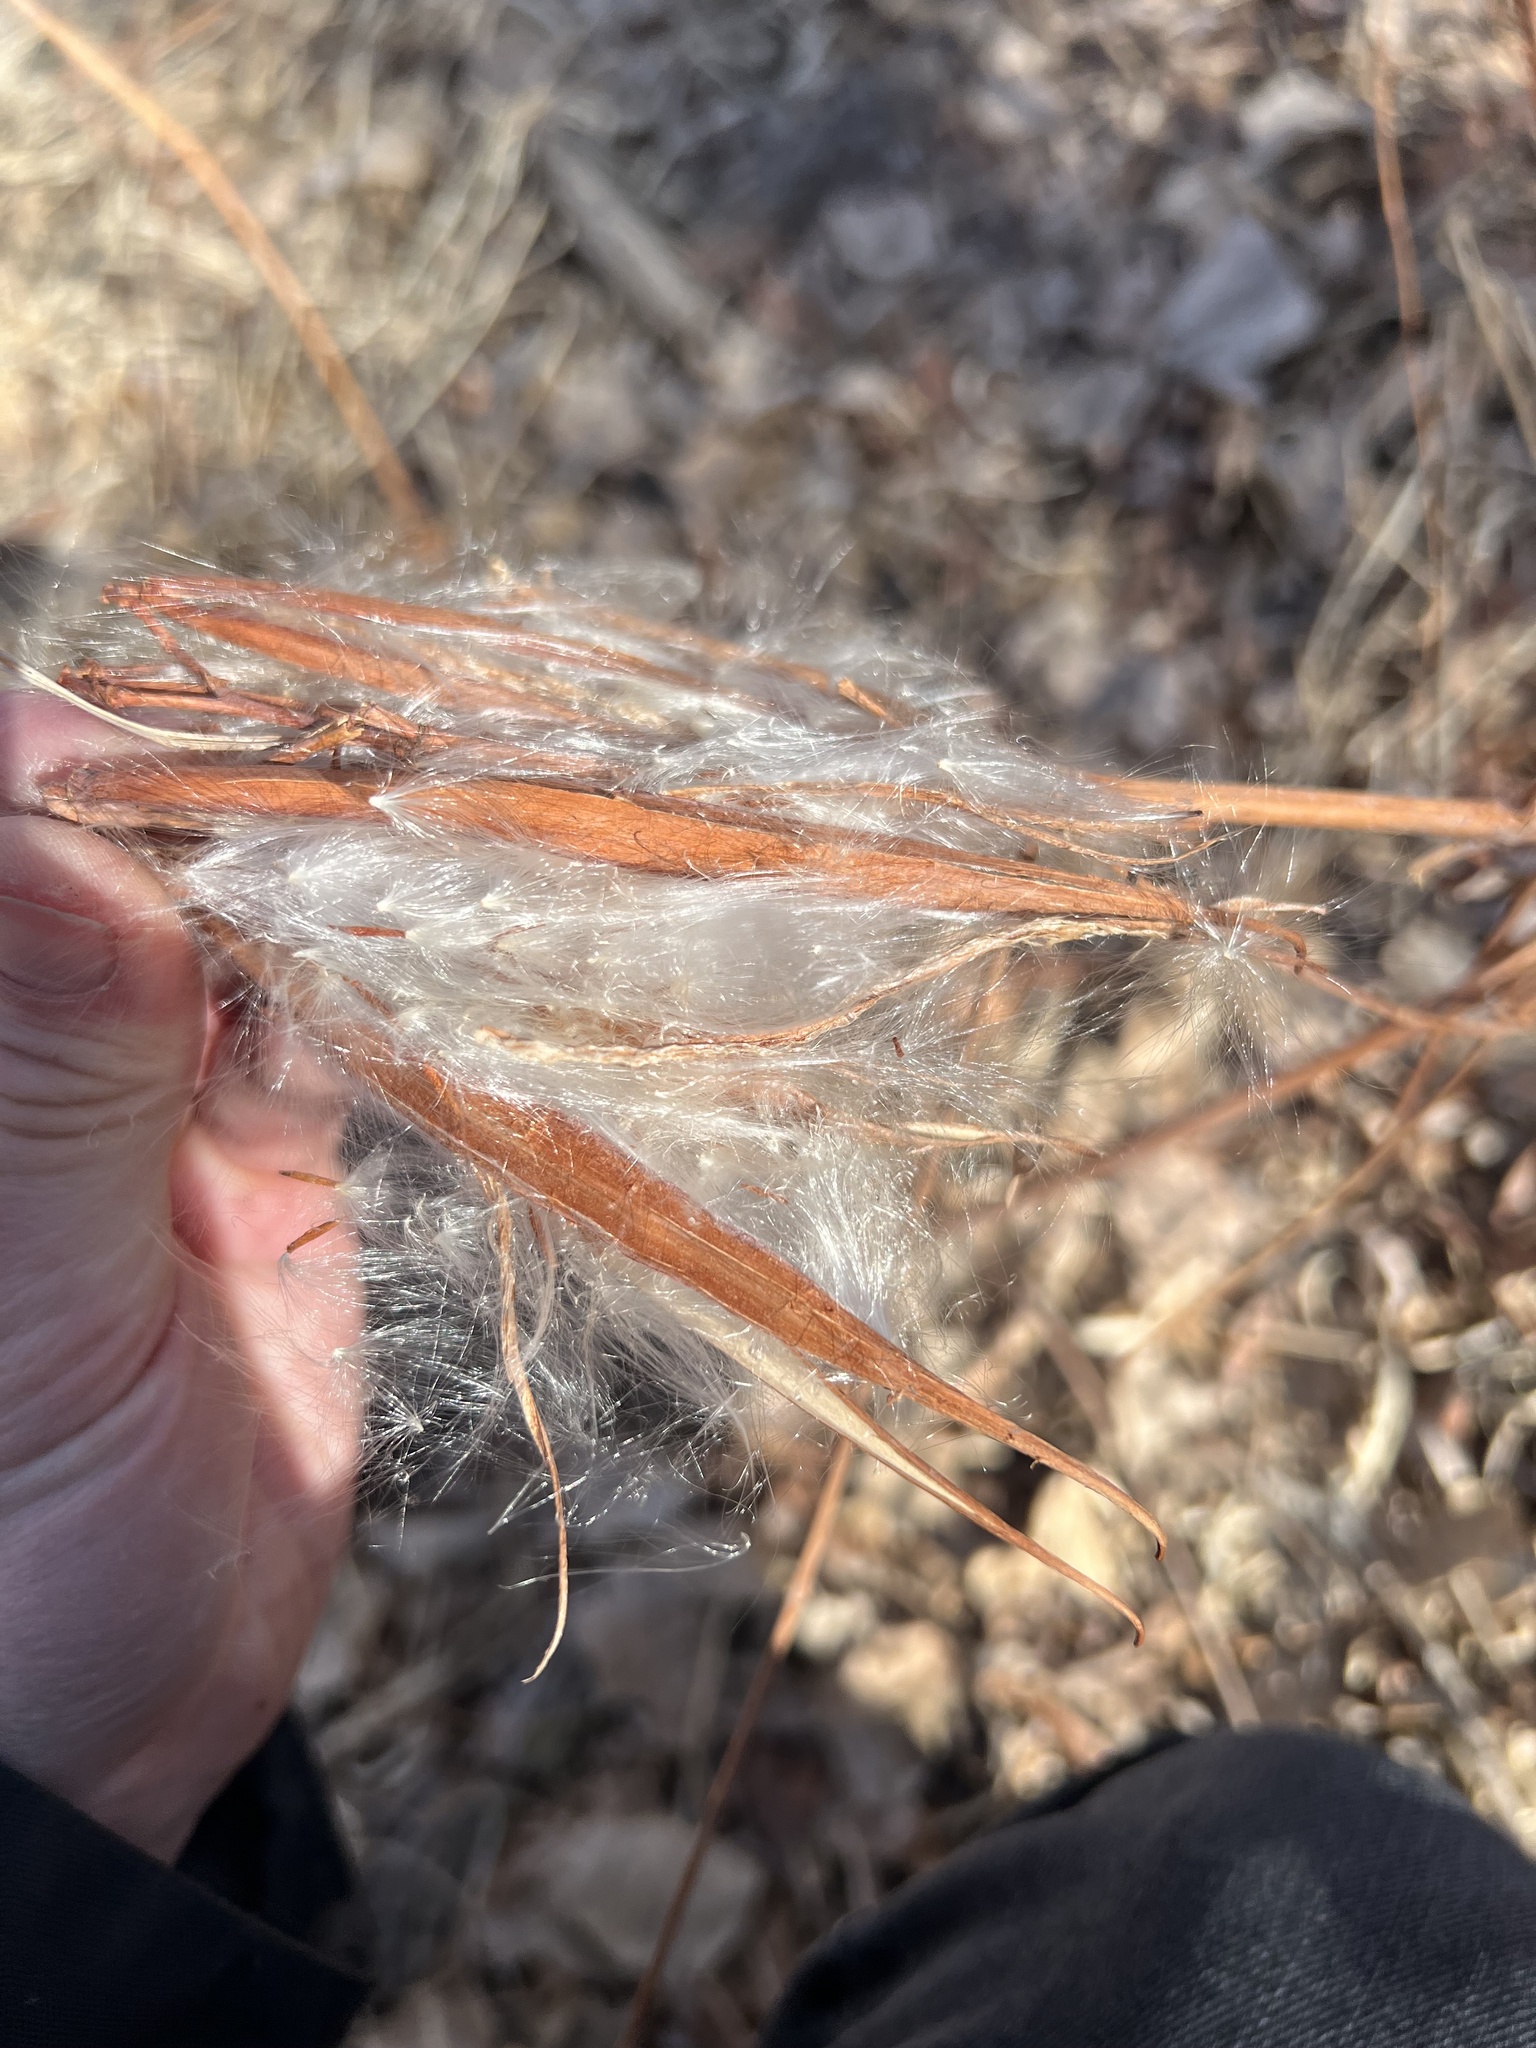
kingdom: Plantae
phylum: Tracheophyta
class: Magnoliopsida
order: Gentianales
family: Apocynaceae
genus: Apocynum
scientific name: Apocynum cannabinum
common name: Hemp dogbane
